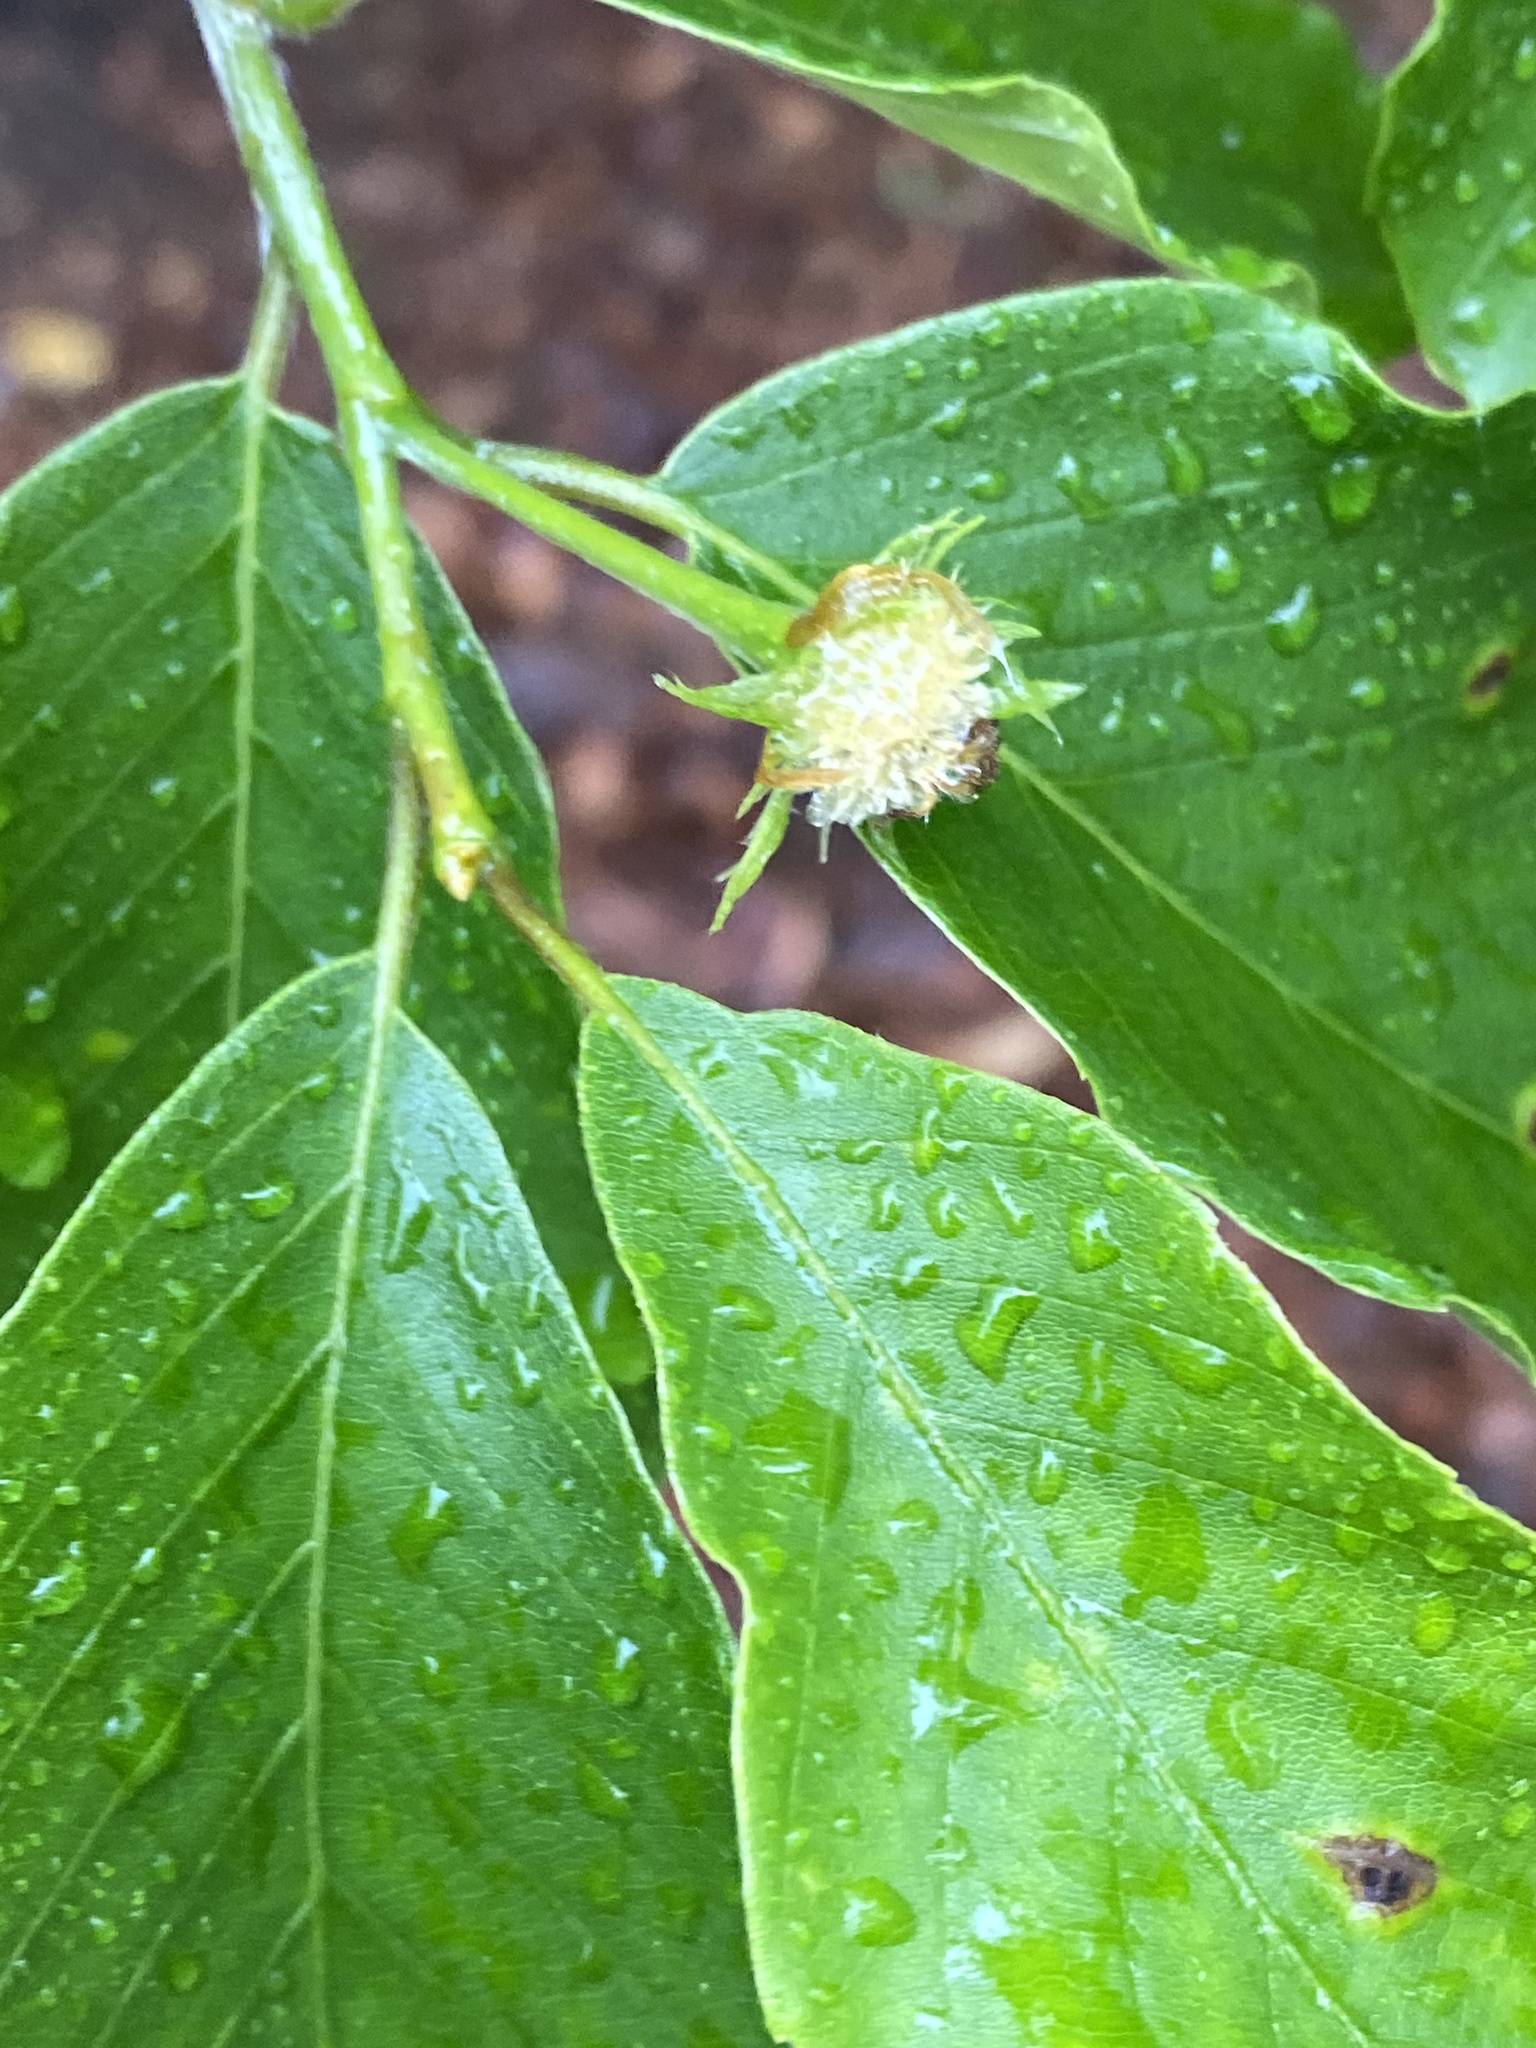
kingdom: Plantae
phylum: Tracheophyta
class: Magnoliopsida
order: Fagales
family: Fagaceae
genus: Fagus
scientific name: Fagus grandifolia
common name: American beech
